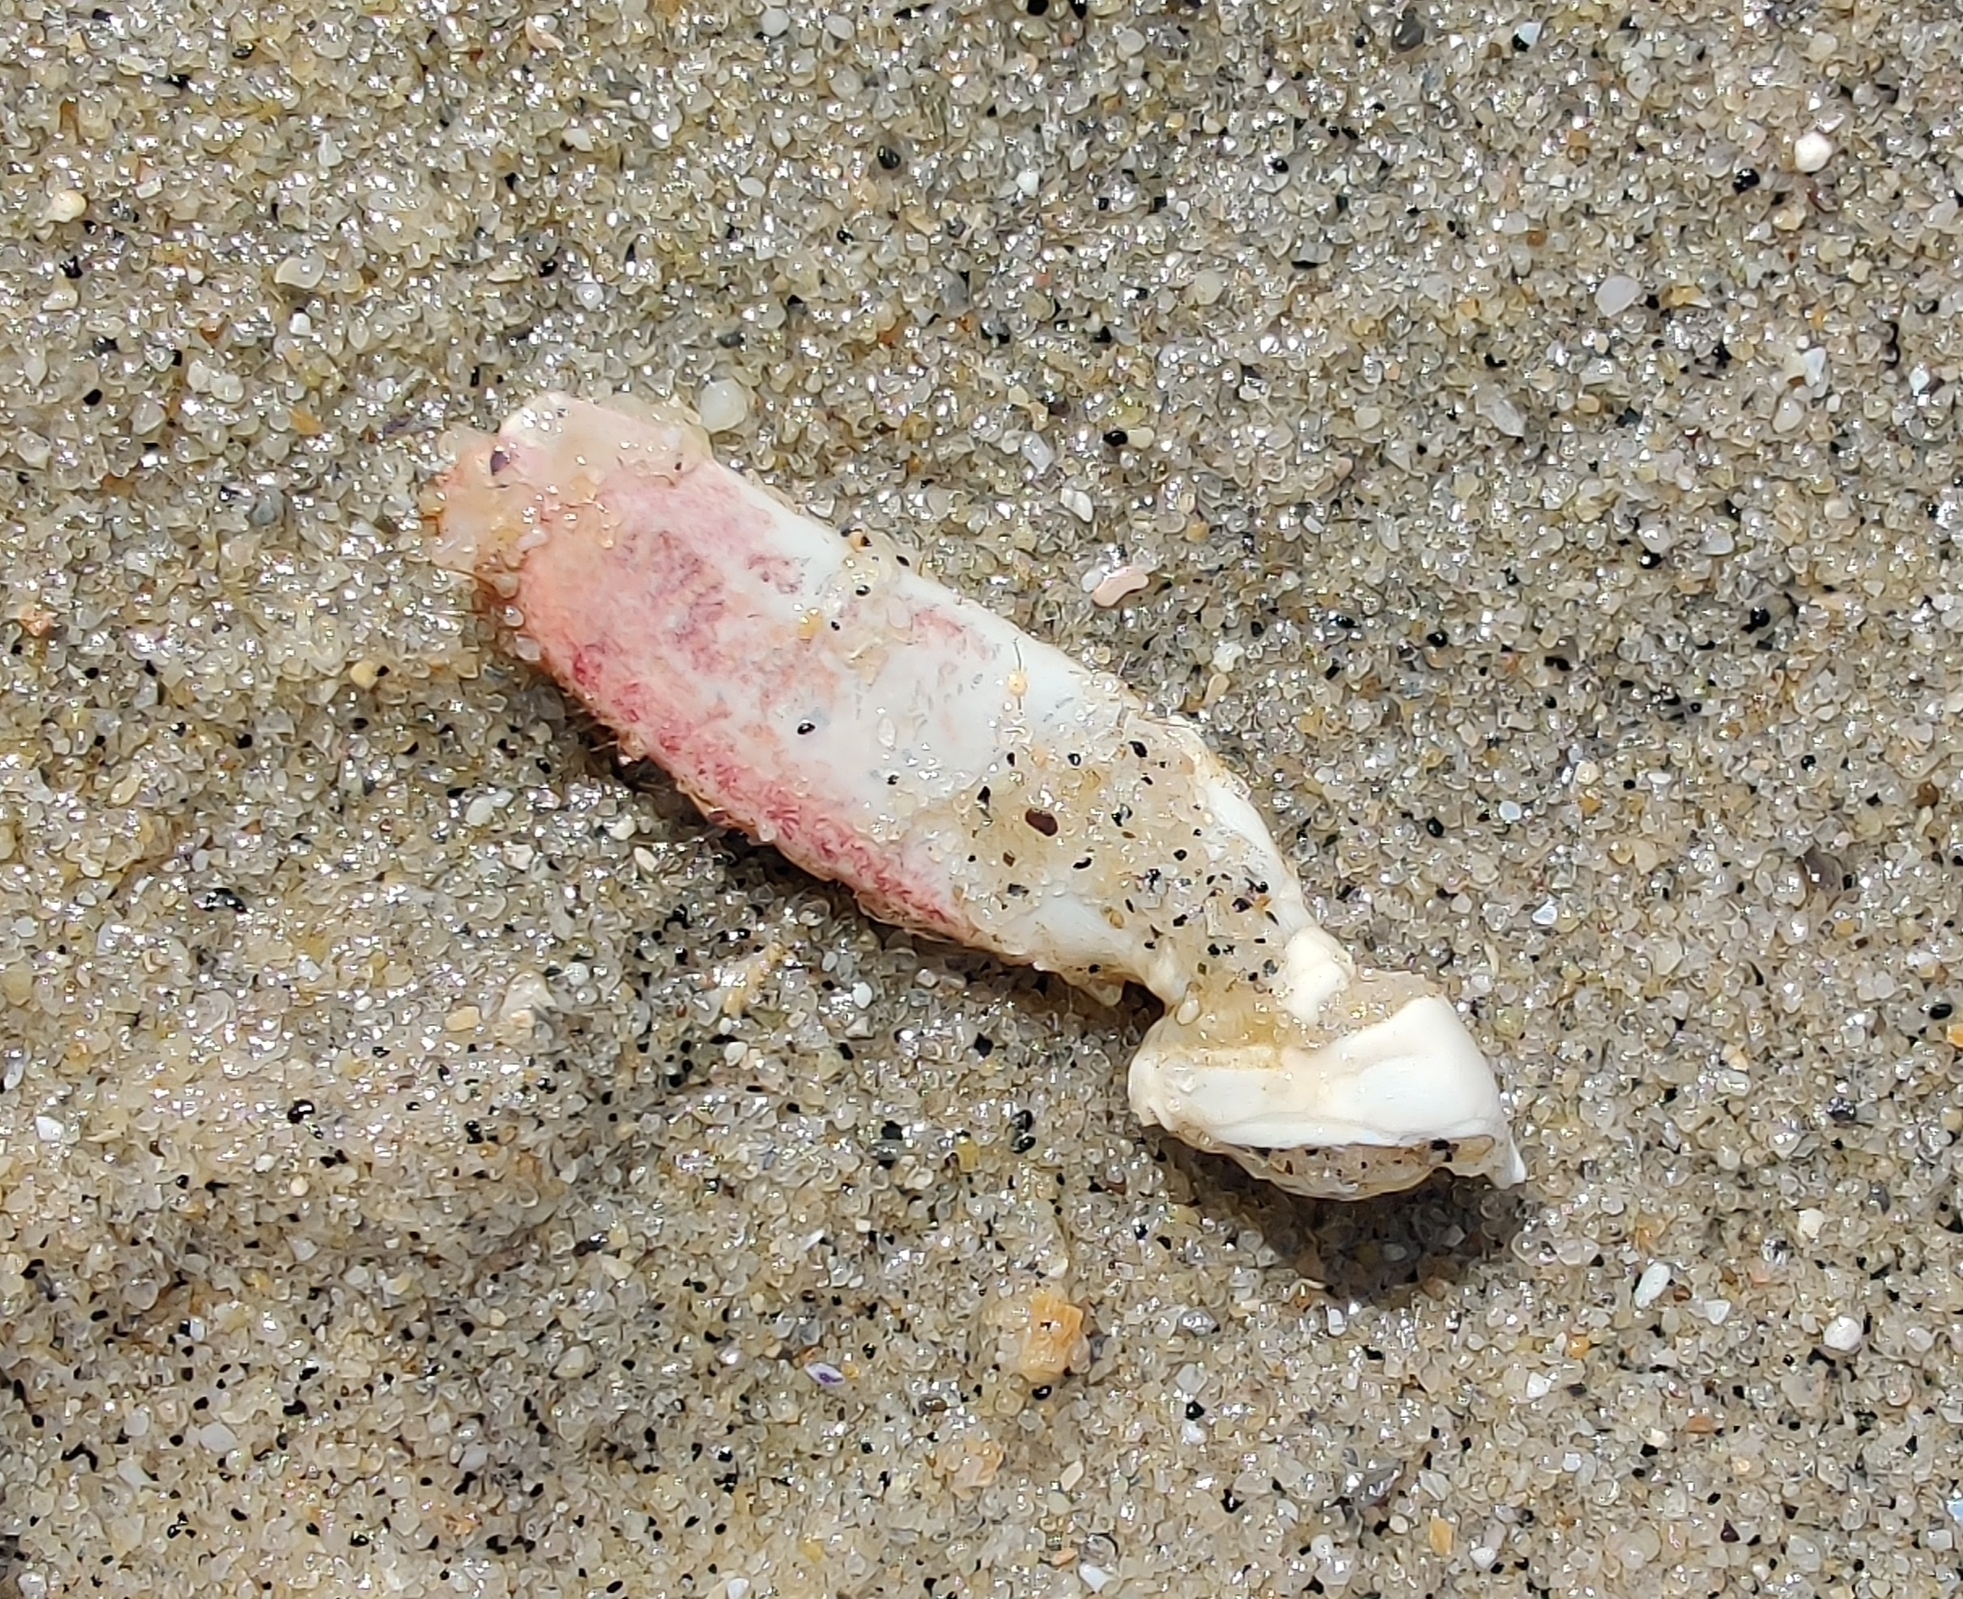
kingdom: Animalia
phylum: Arthropoda
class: Malacostraca
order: Decapoda
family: Cancridae
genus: Cancer
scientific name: Cancer pagurus
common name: Edible crab
